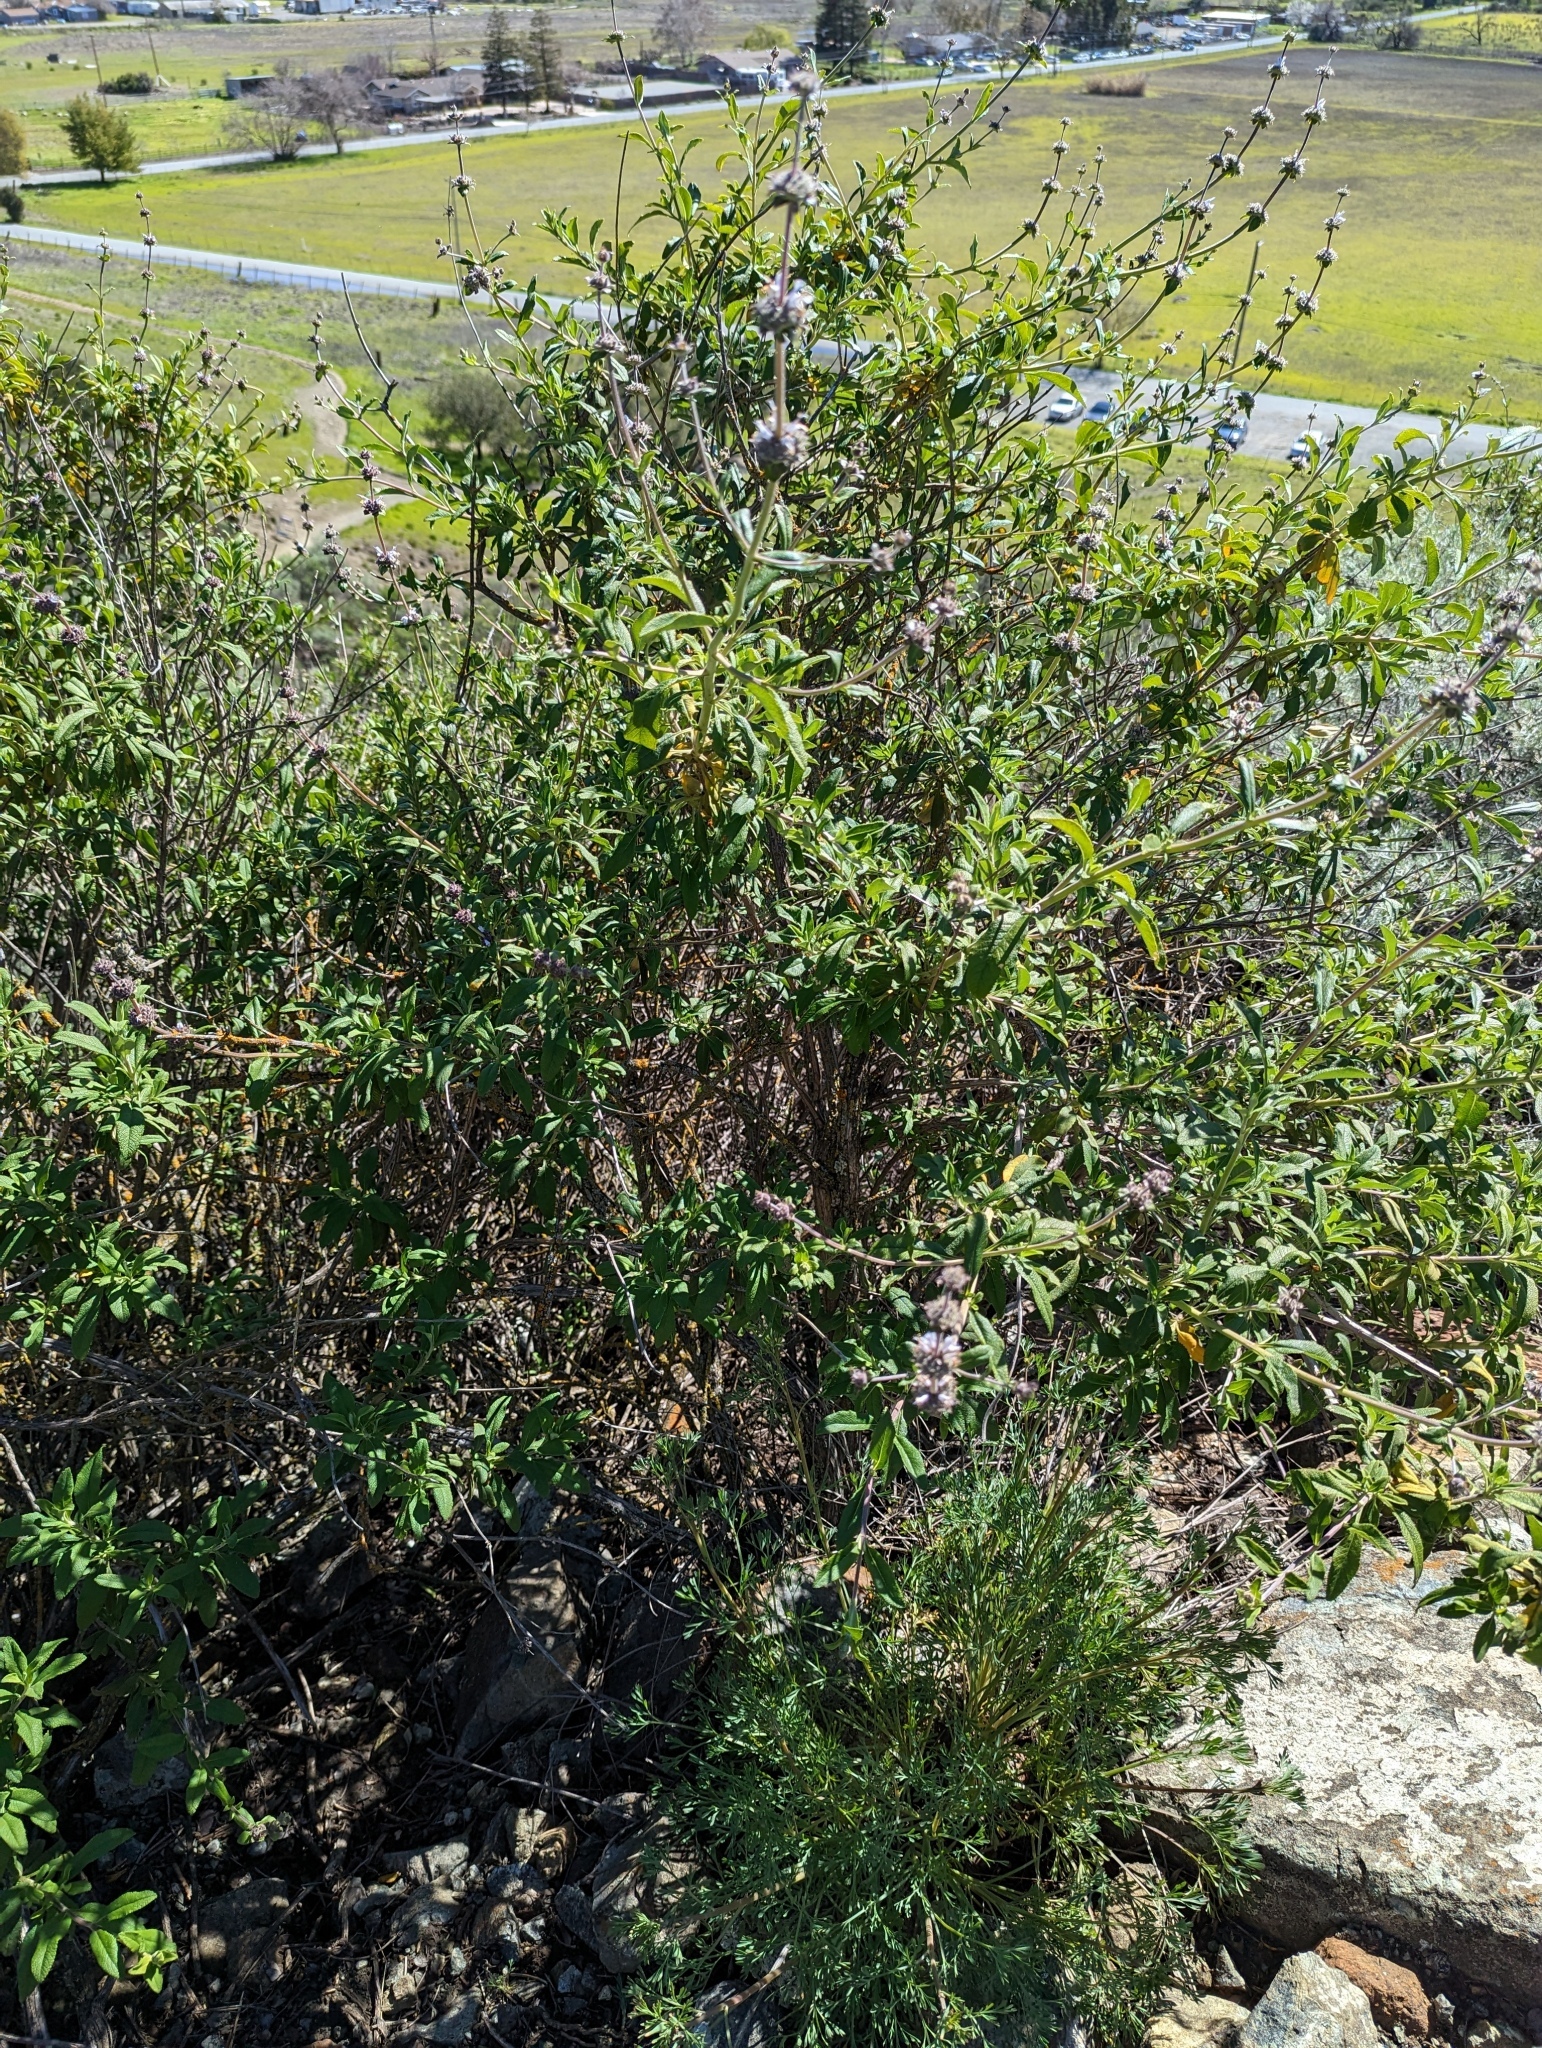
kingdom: Plantae
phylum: Tracheophyta
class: Magnoliopsida
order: Lamiales
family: Lamiaceae
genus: Salvia
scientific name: Salvia mellifera
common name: Black sage
